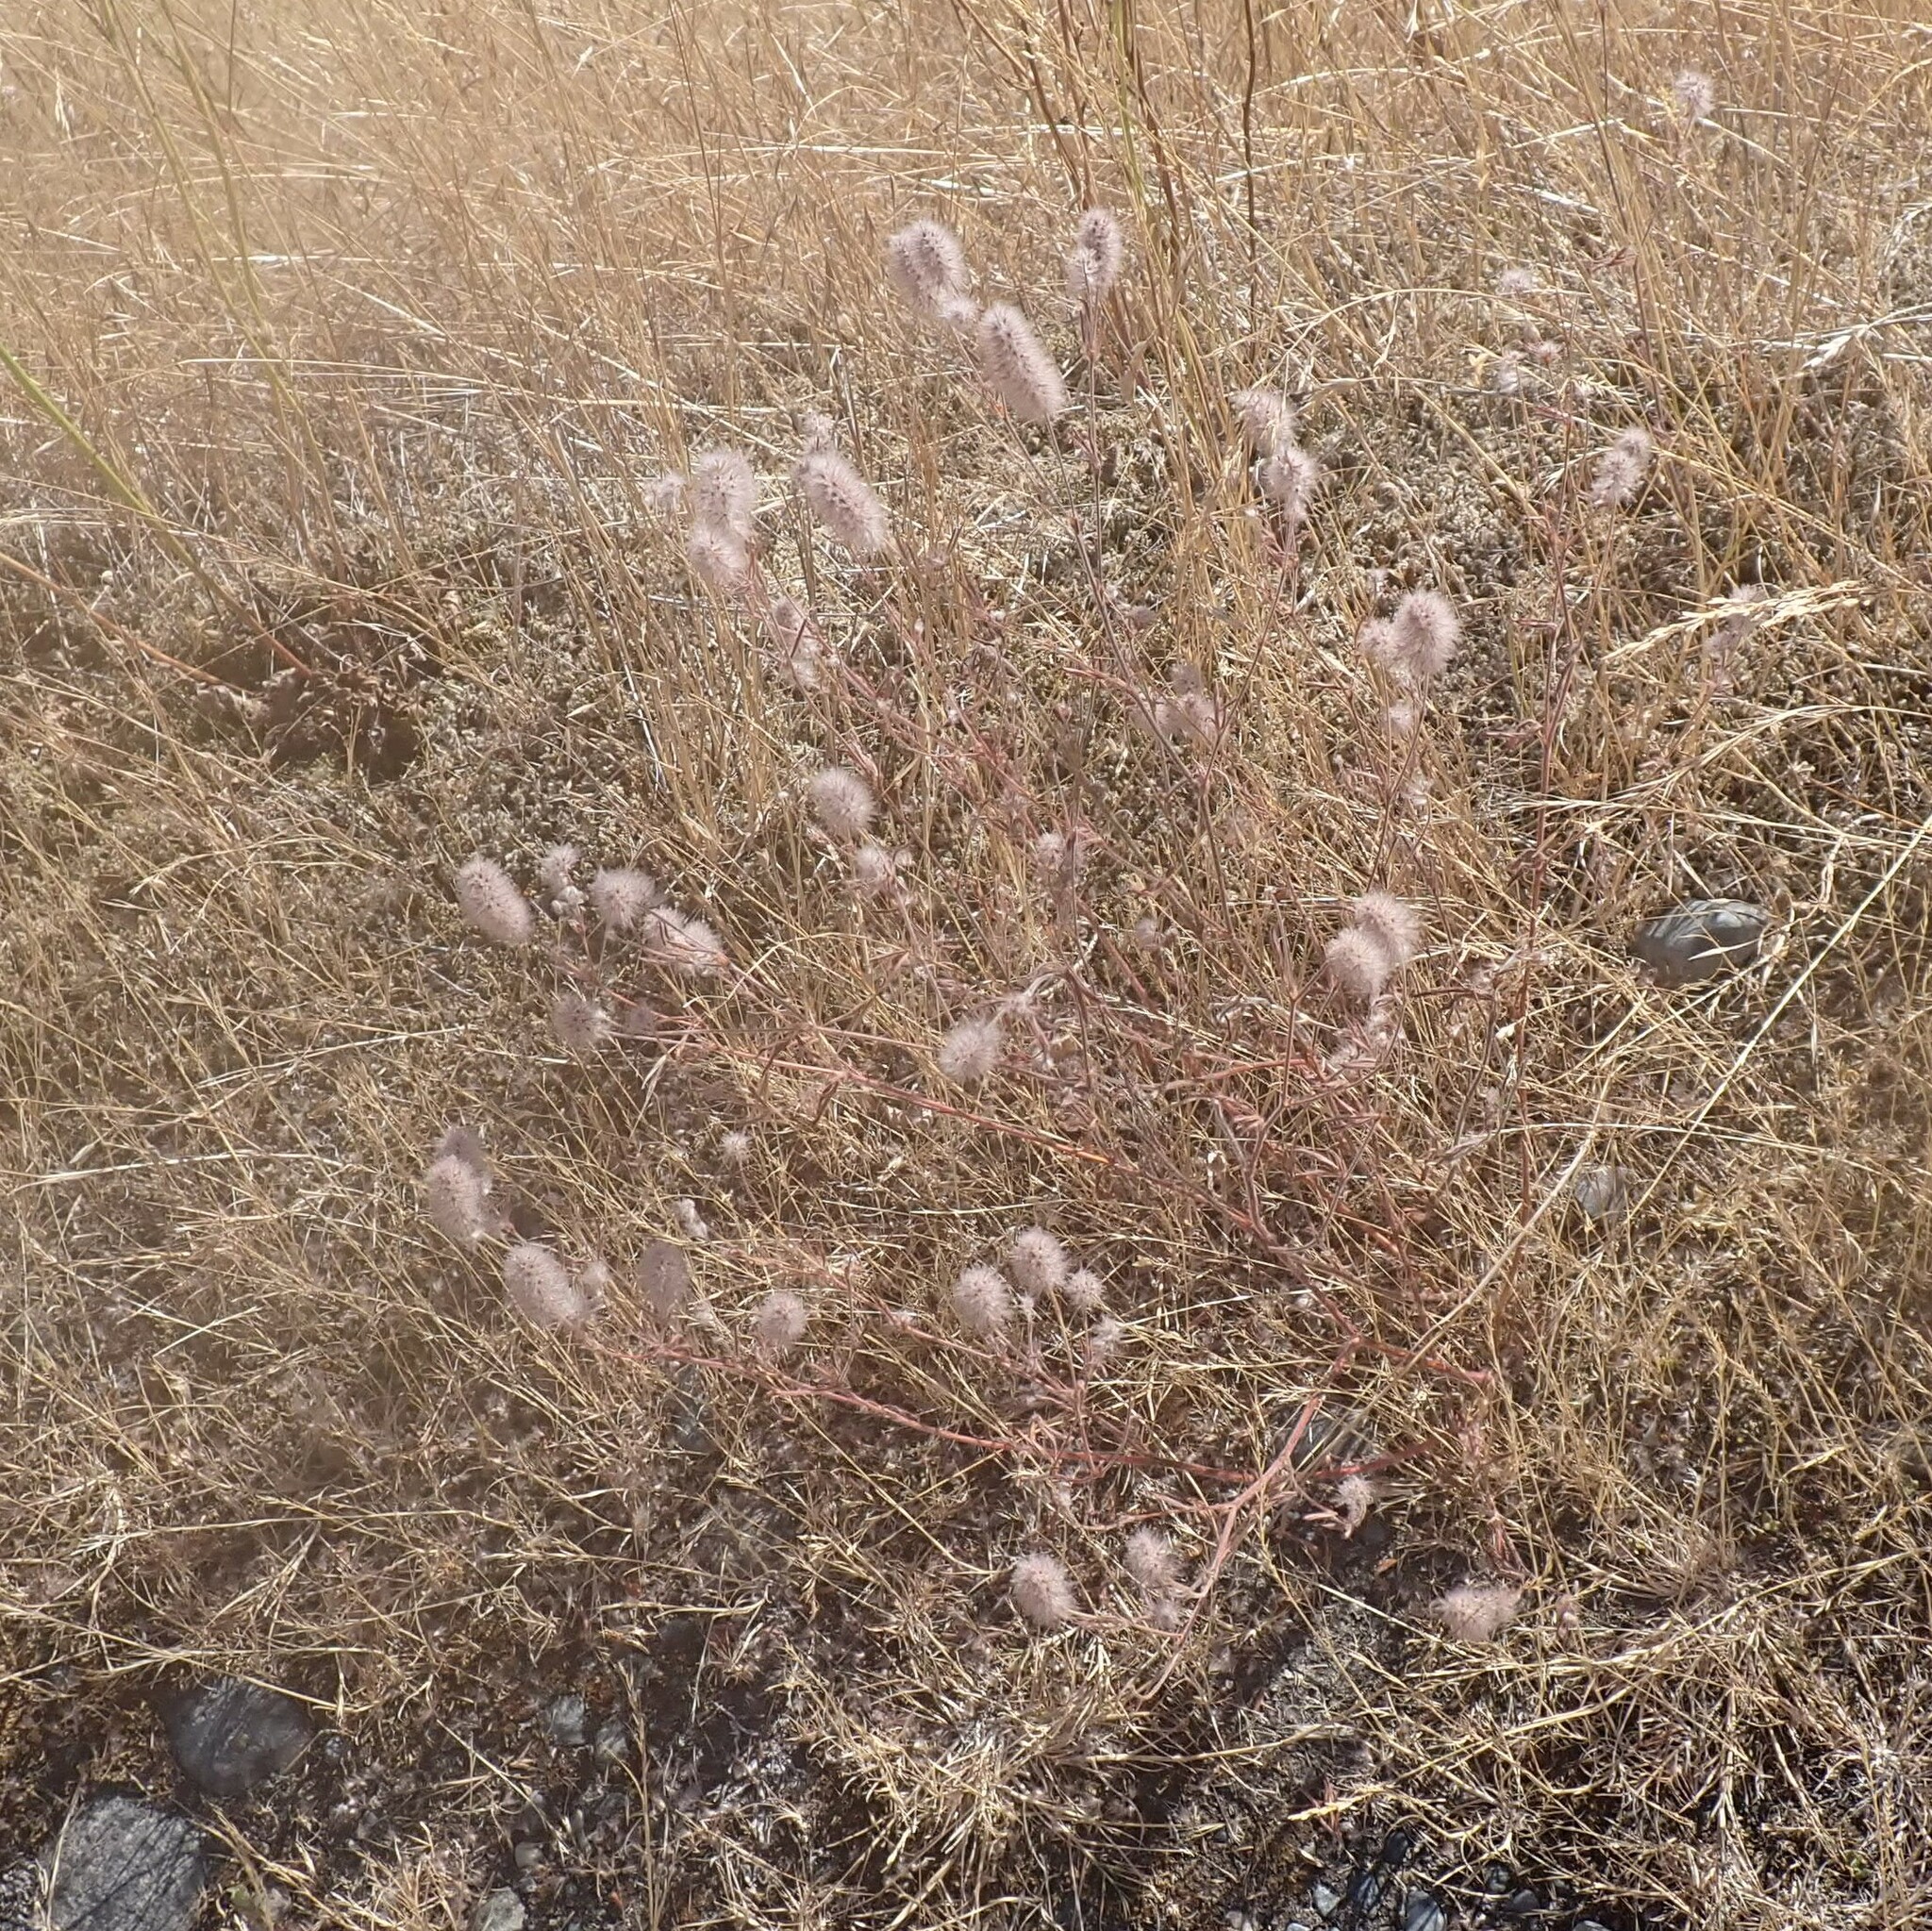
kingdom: Plantae
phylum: Tracheophyta
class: Magnoliopsida
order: Fabales
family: Fabaceae
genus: Trifolium
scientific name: Trifolium arvense
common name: Hare's-foot clover
